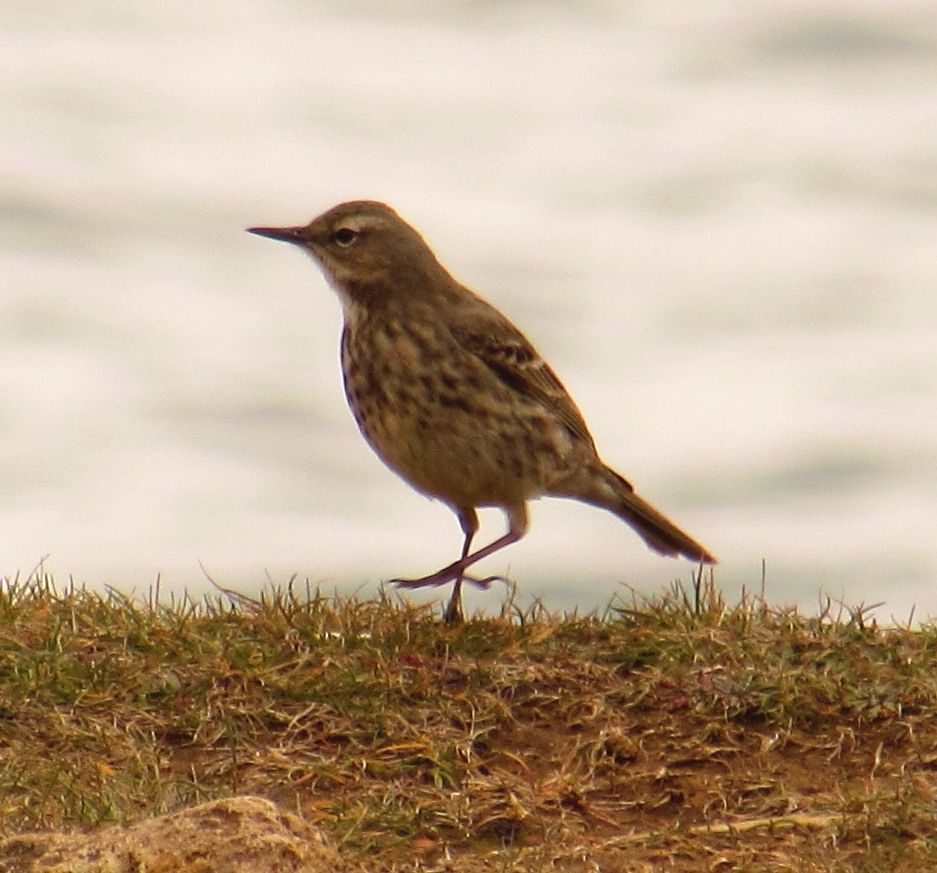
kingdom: Animalia
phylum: Chordata
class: Aves
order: Passeriformes
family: Motacillidae
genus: Anthus
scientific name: Anthus petrosus
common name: Eurasian rock pipit
